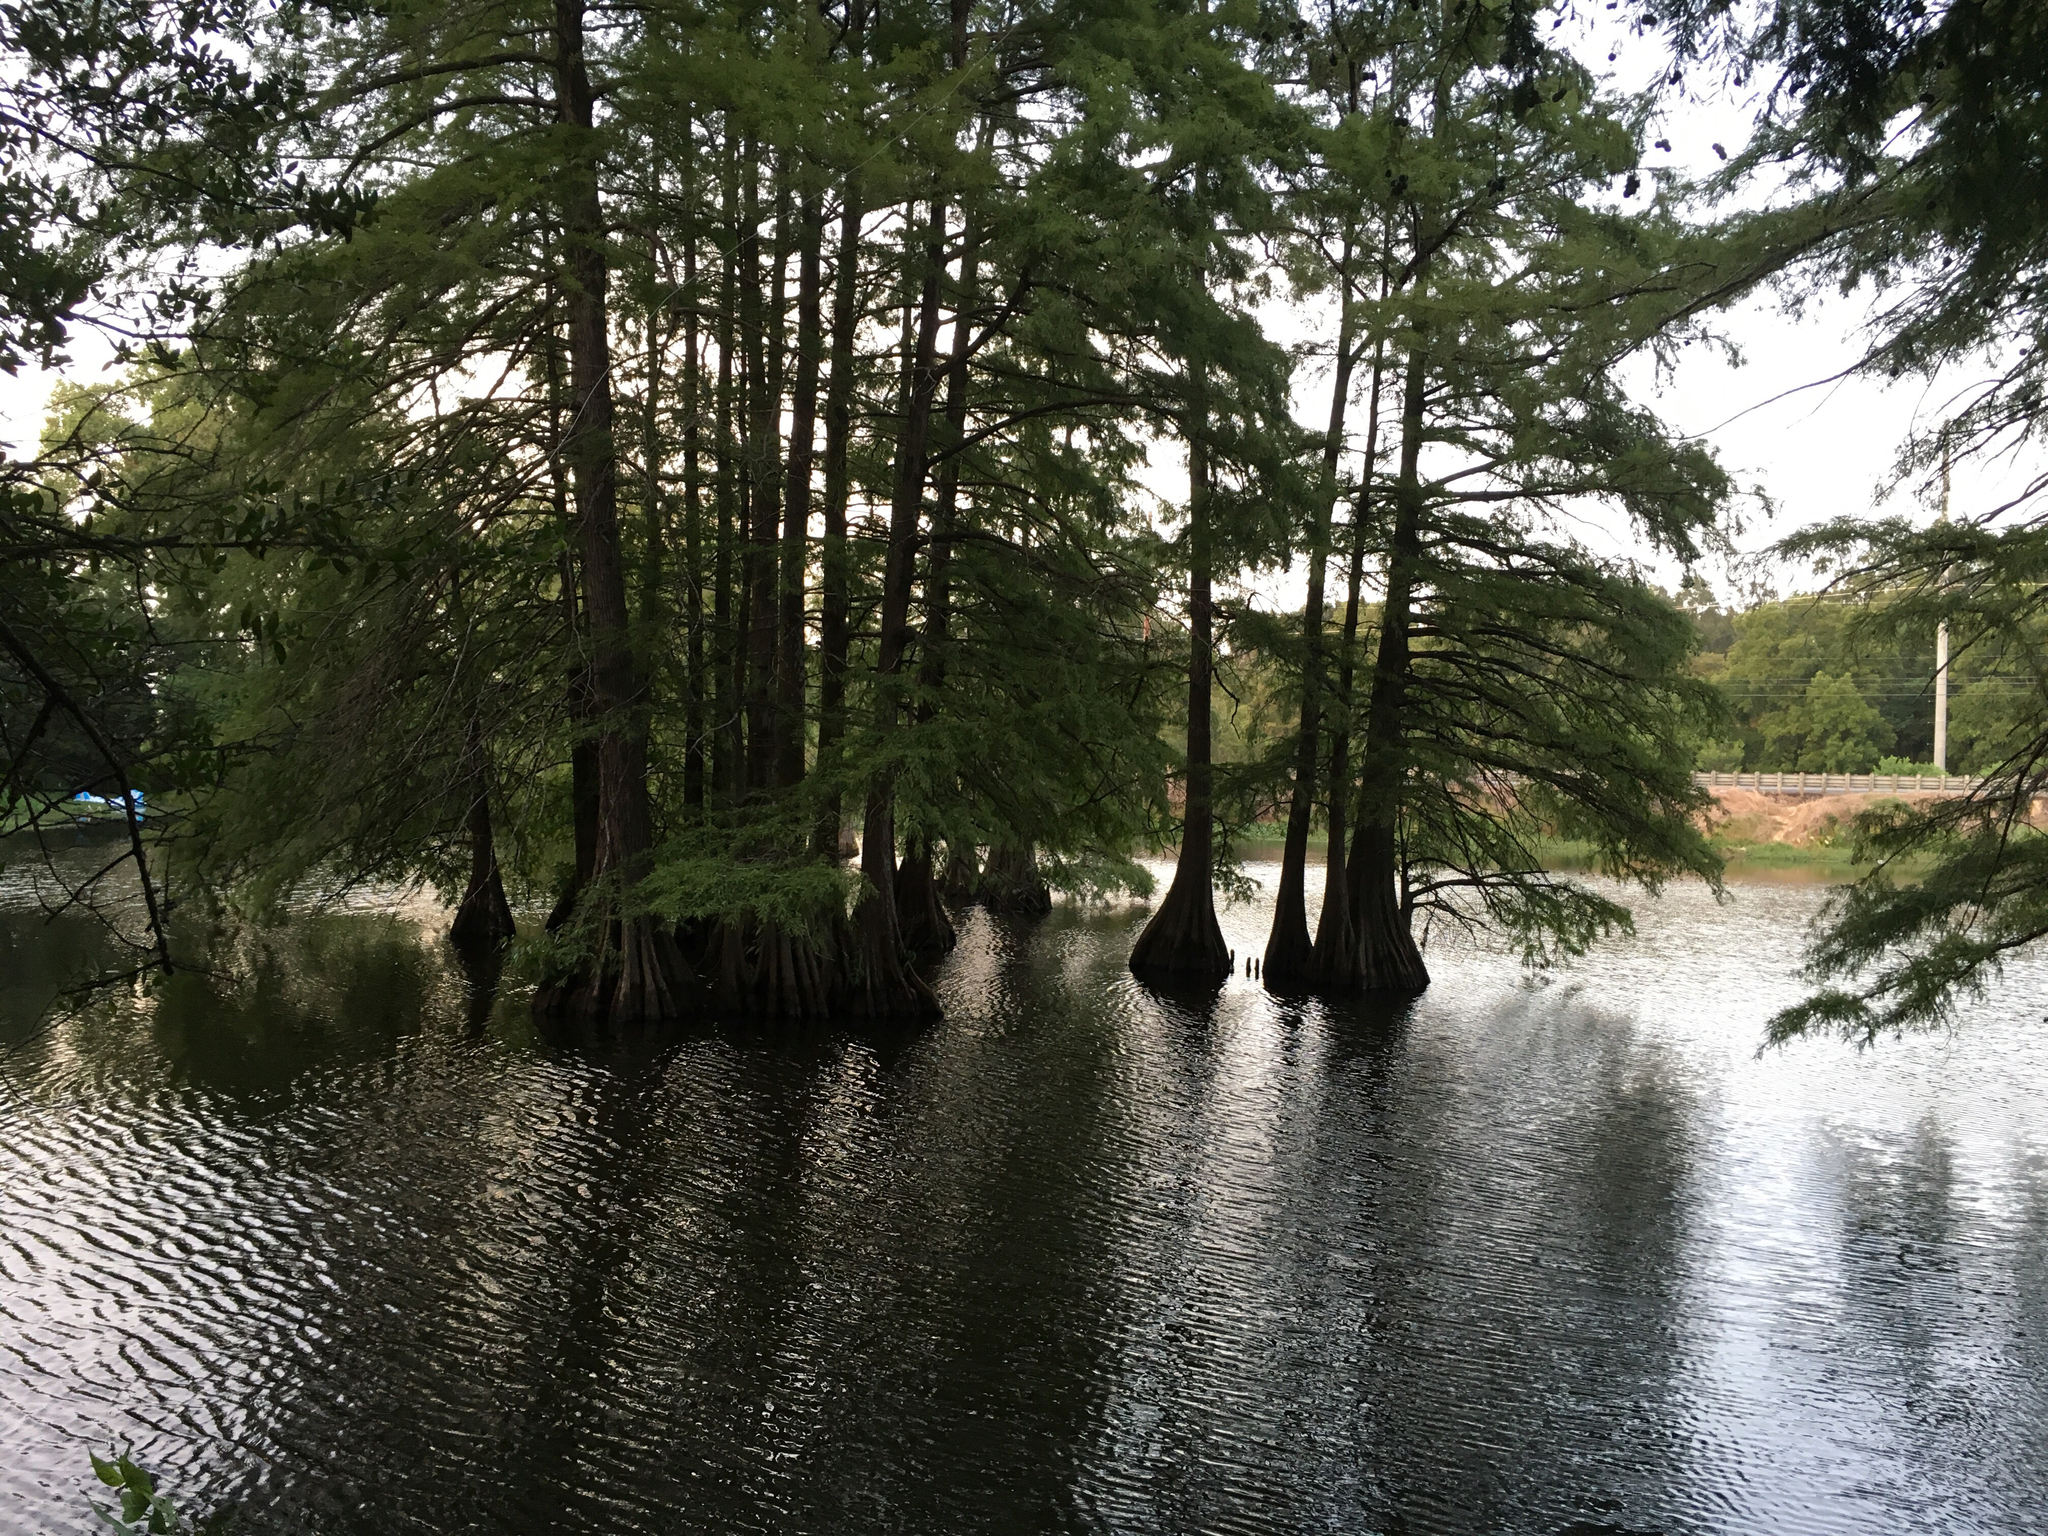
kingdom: Plantae
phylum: Tracheophyta
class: Pinopsida
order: Pinales
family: Cupressaceae
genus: Taxodium
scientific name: Taxodium distichum
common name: Bald cypress
